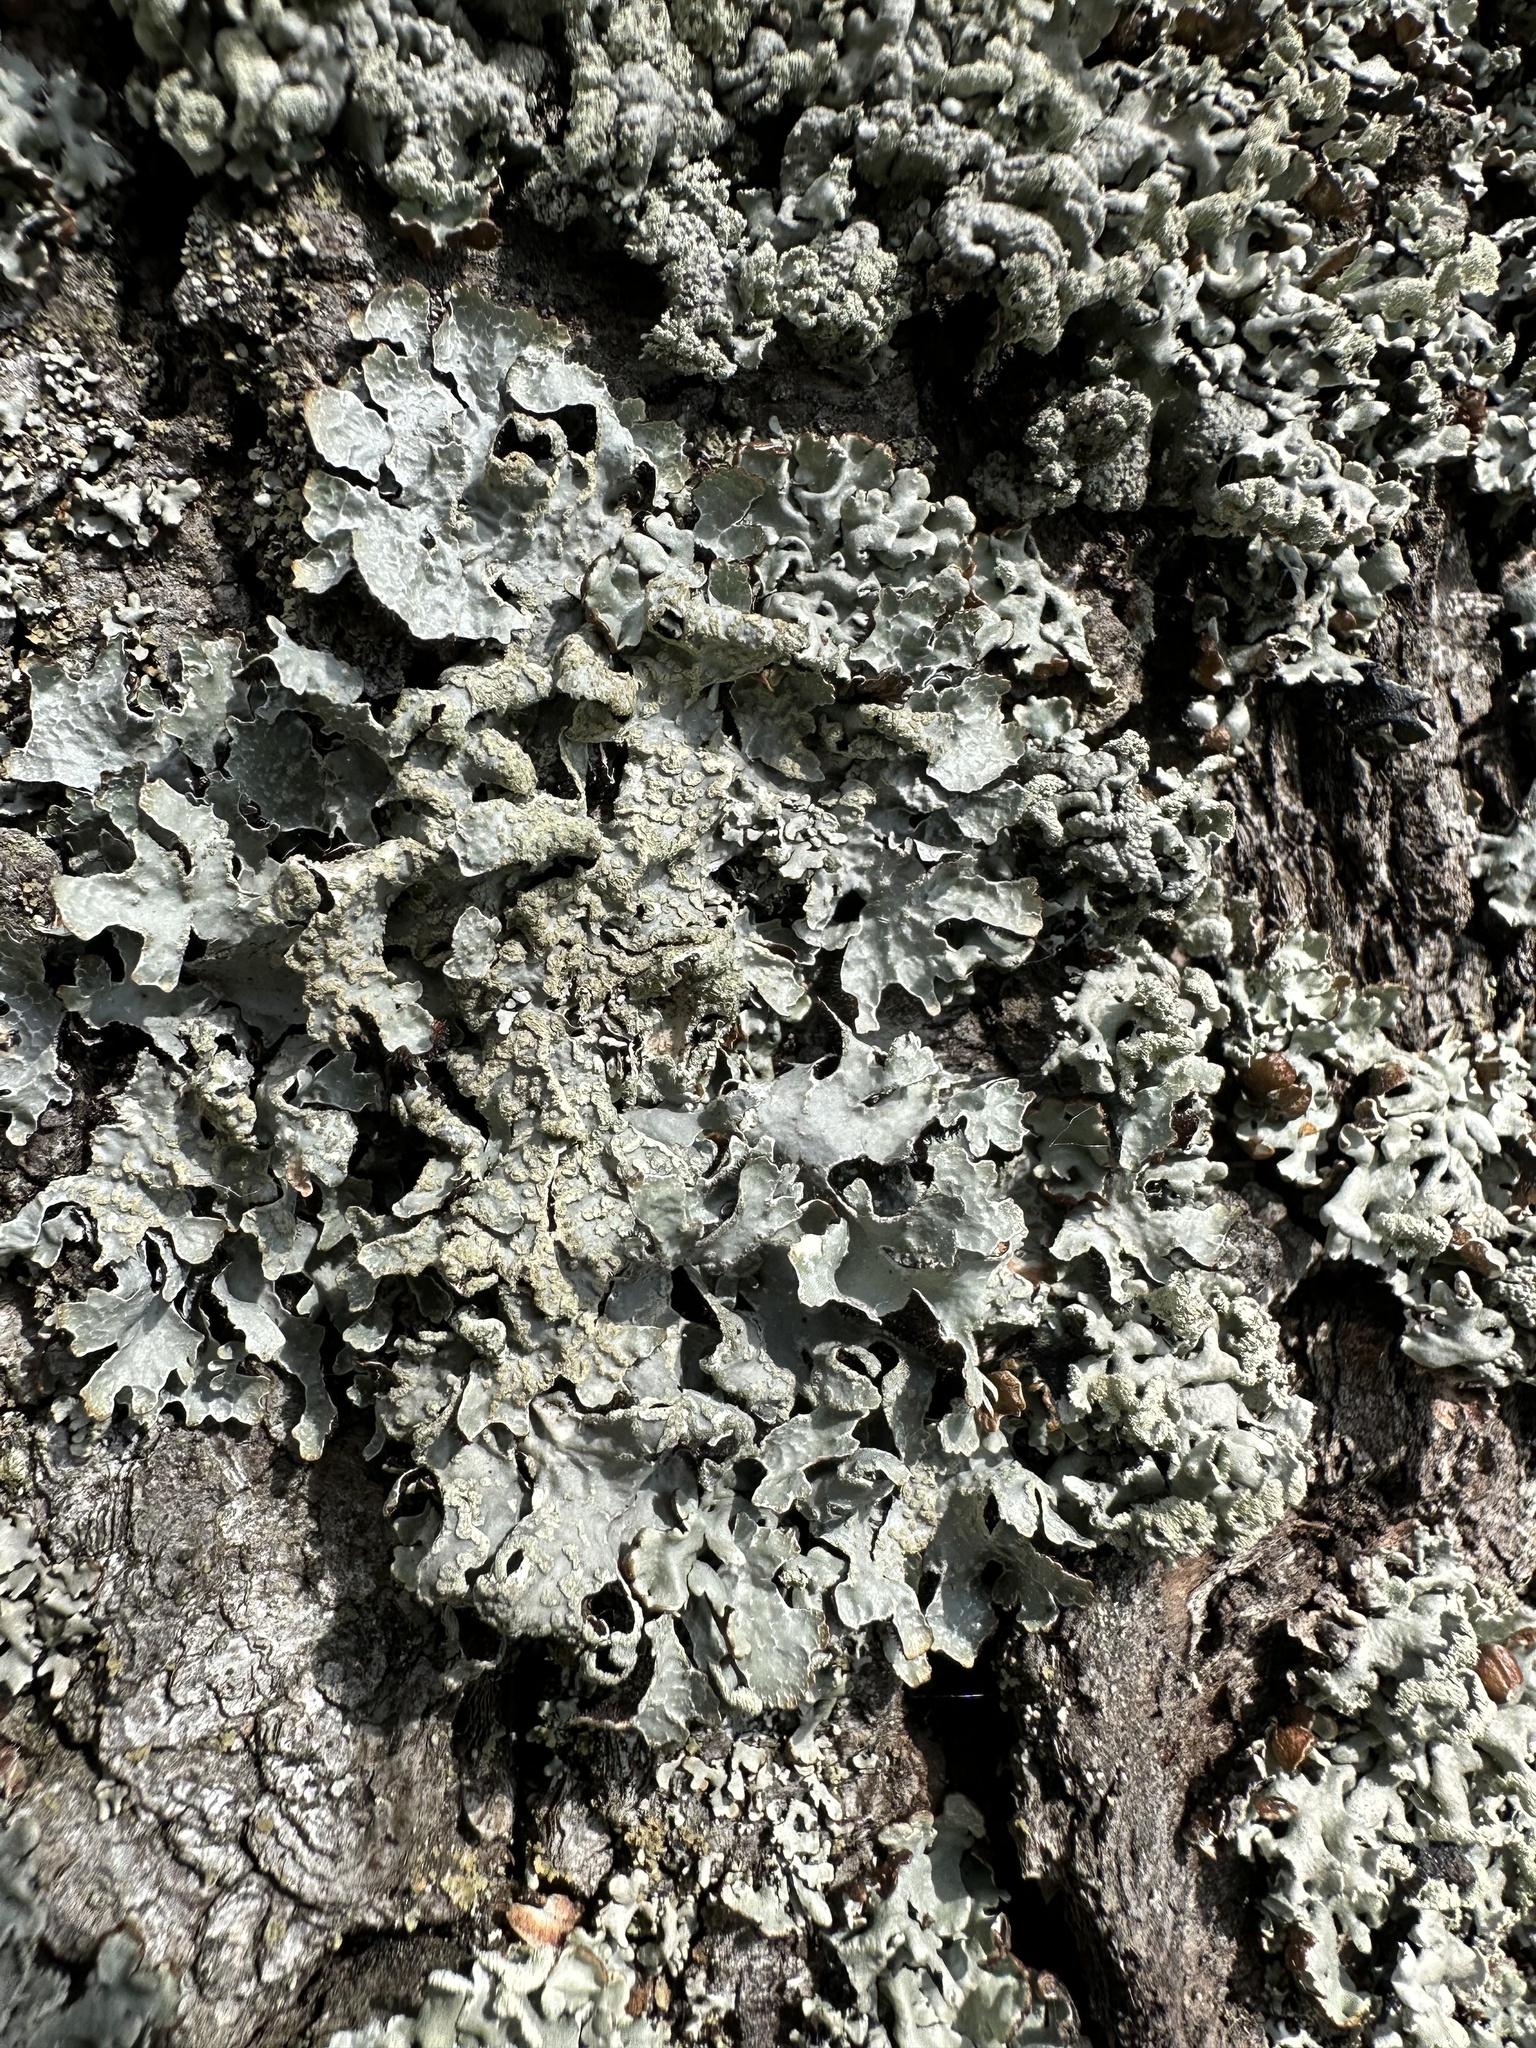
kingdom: Fungi
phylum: Ascomycota
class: Lecanoromycetes
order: Lecanorales
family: Parmeliaceae
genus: Parmelia
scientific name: Parmelia sulcata
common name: Netted shield lichen
